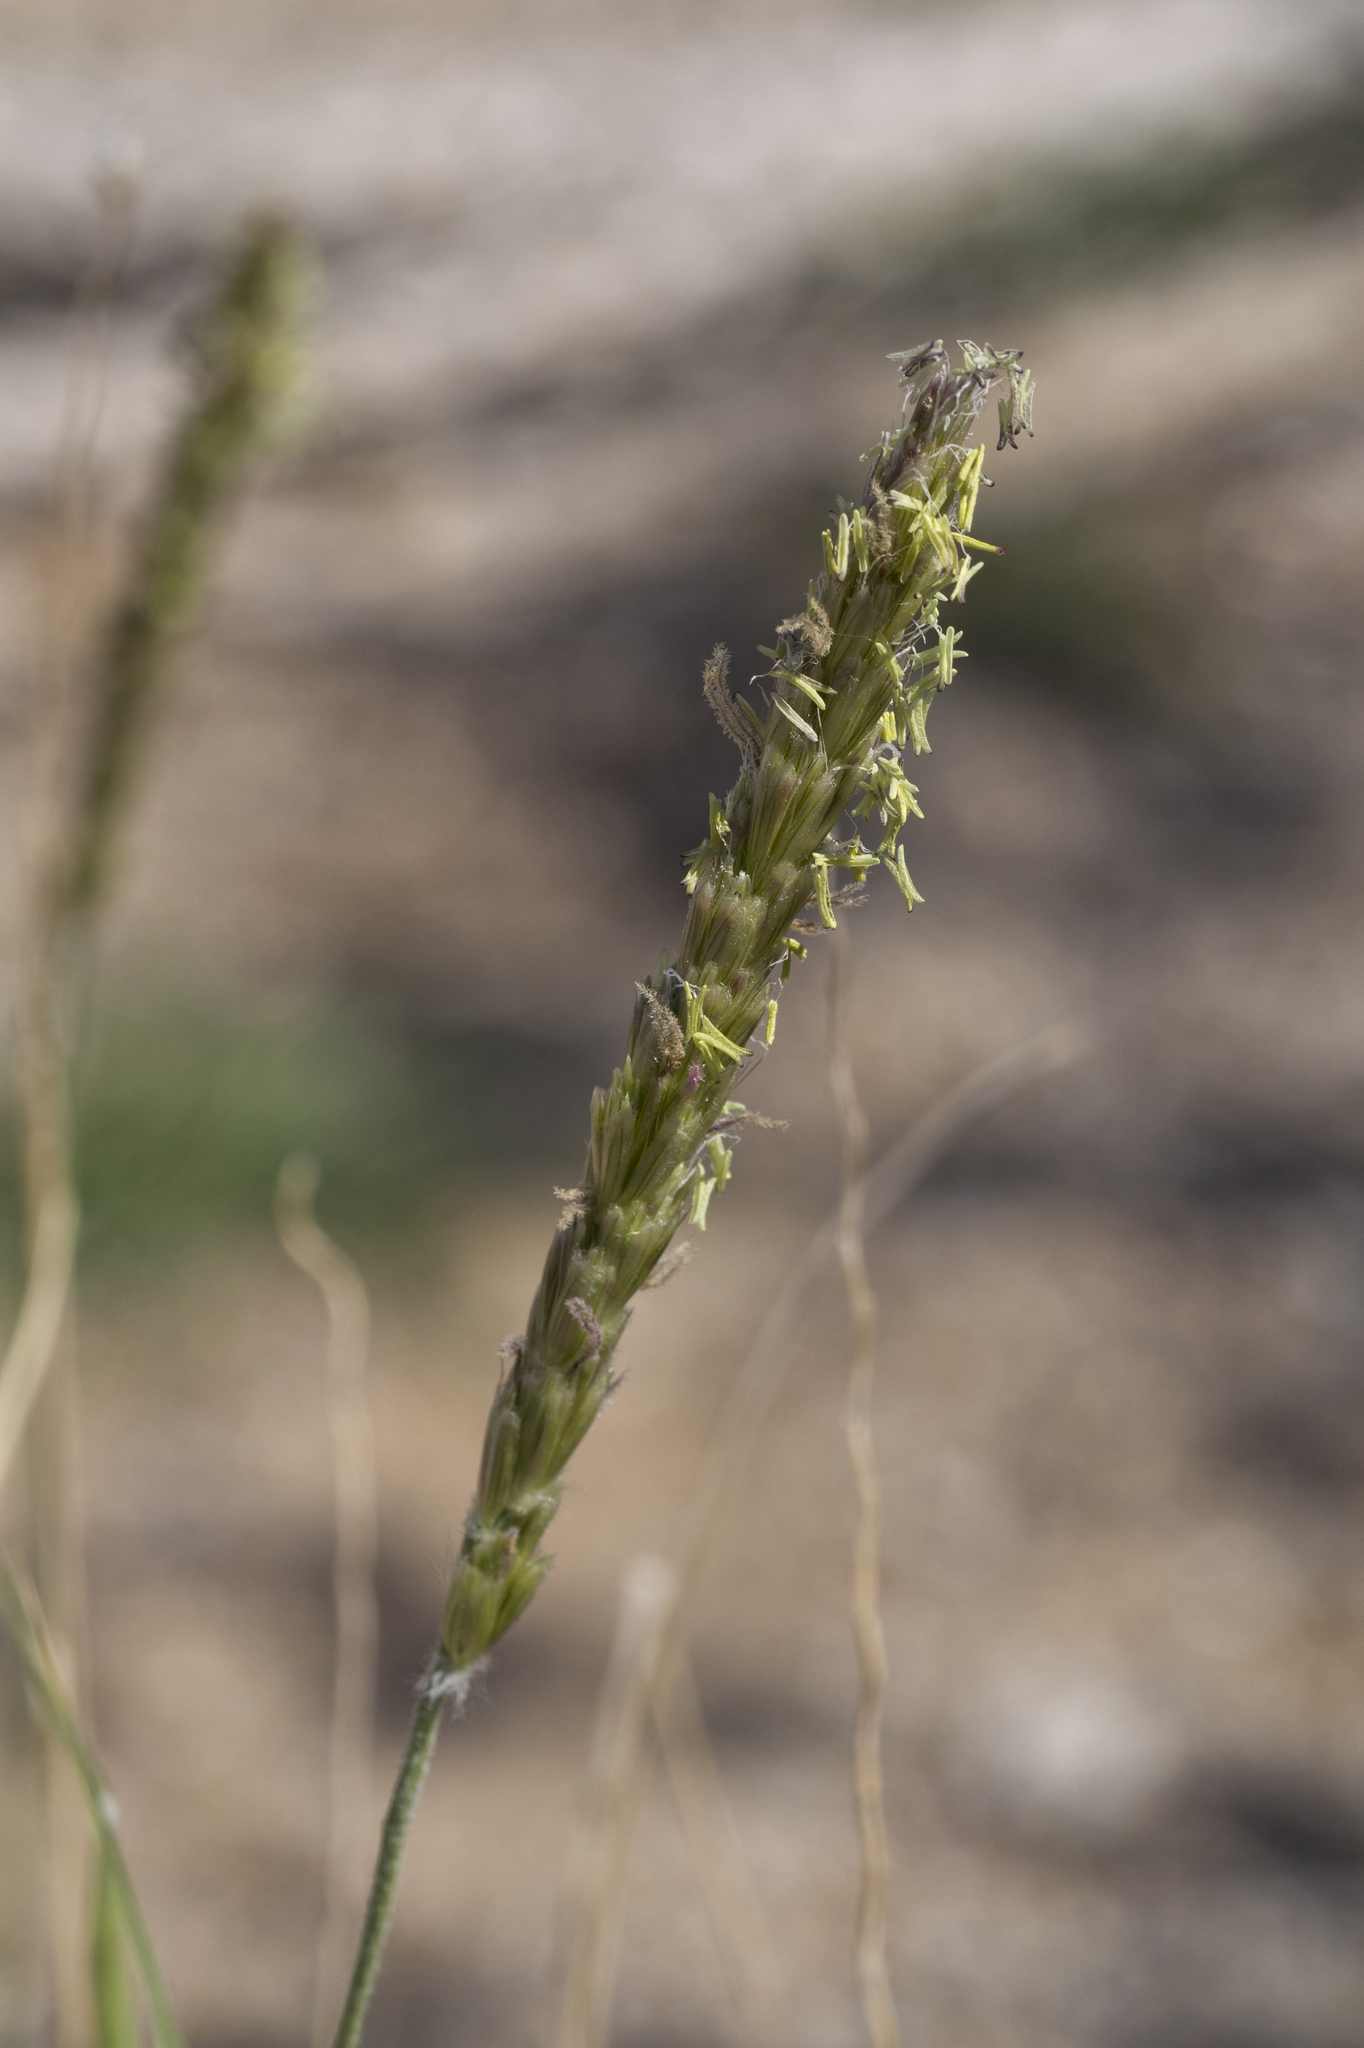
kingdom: Plantae
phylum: Tracheophyta
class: Liliopsida
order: Poales
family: Poaceae
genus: Hilaria
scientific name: Hilaria rigida
